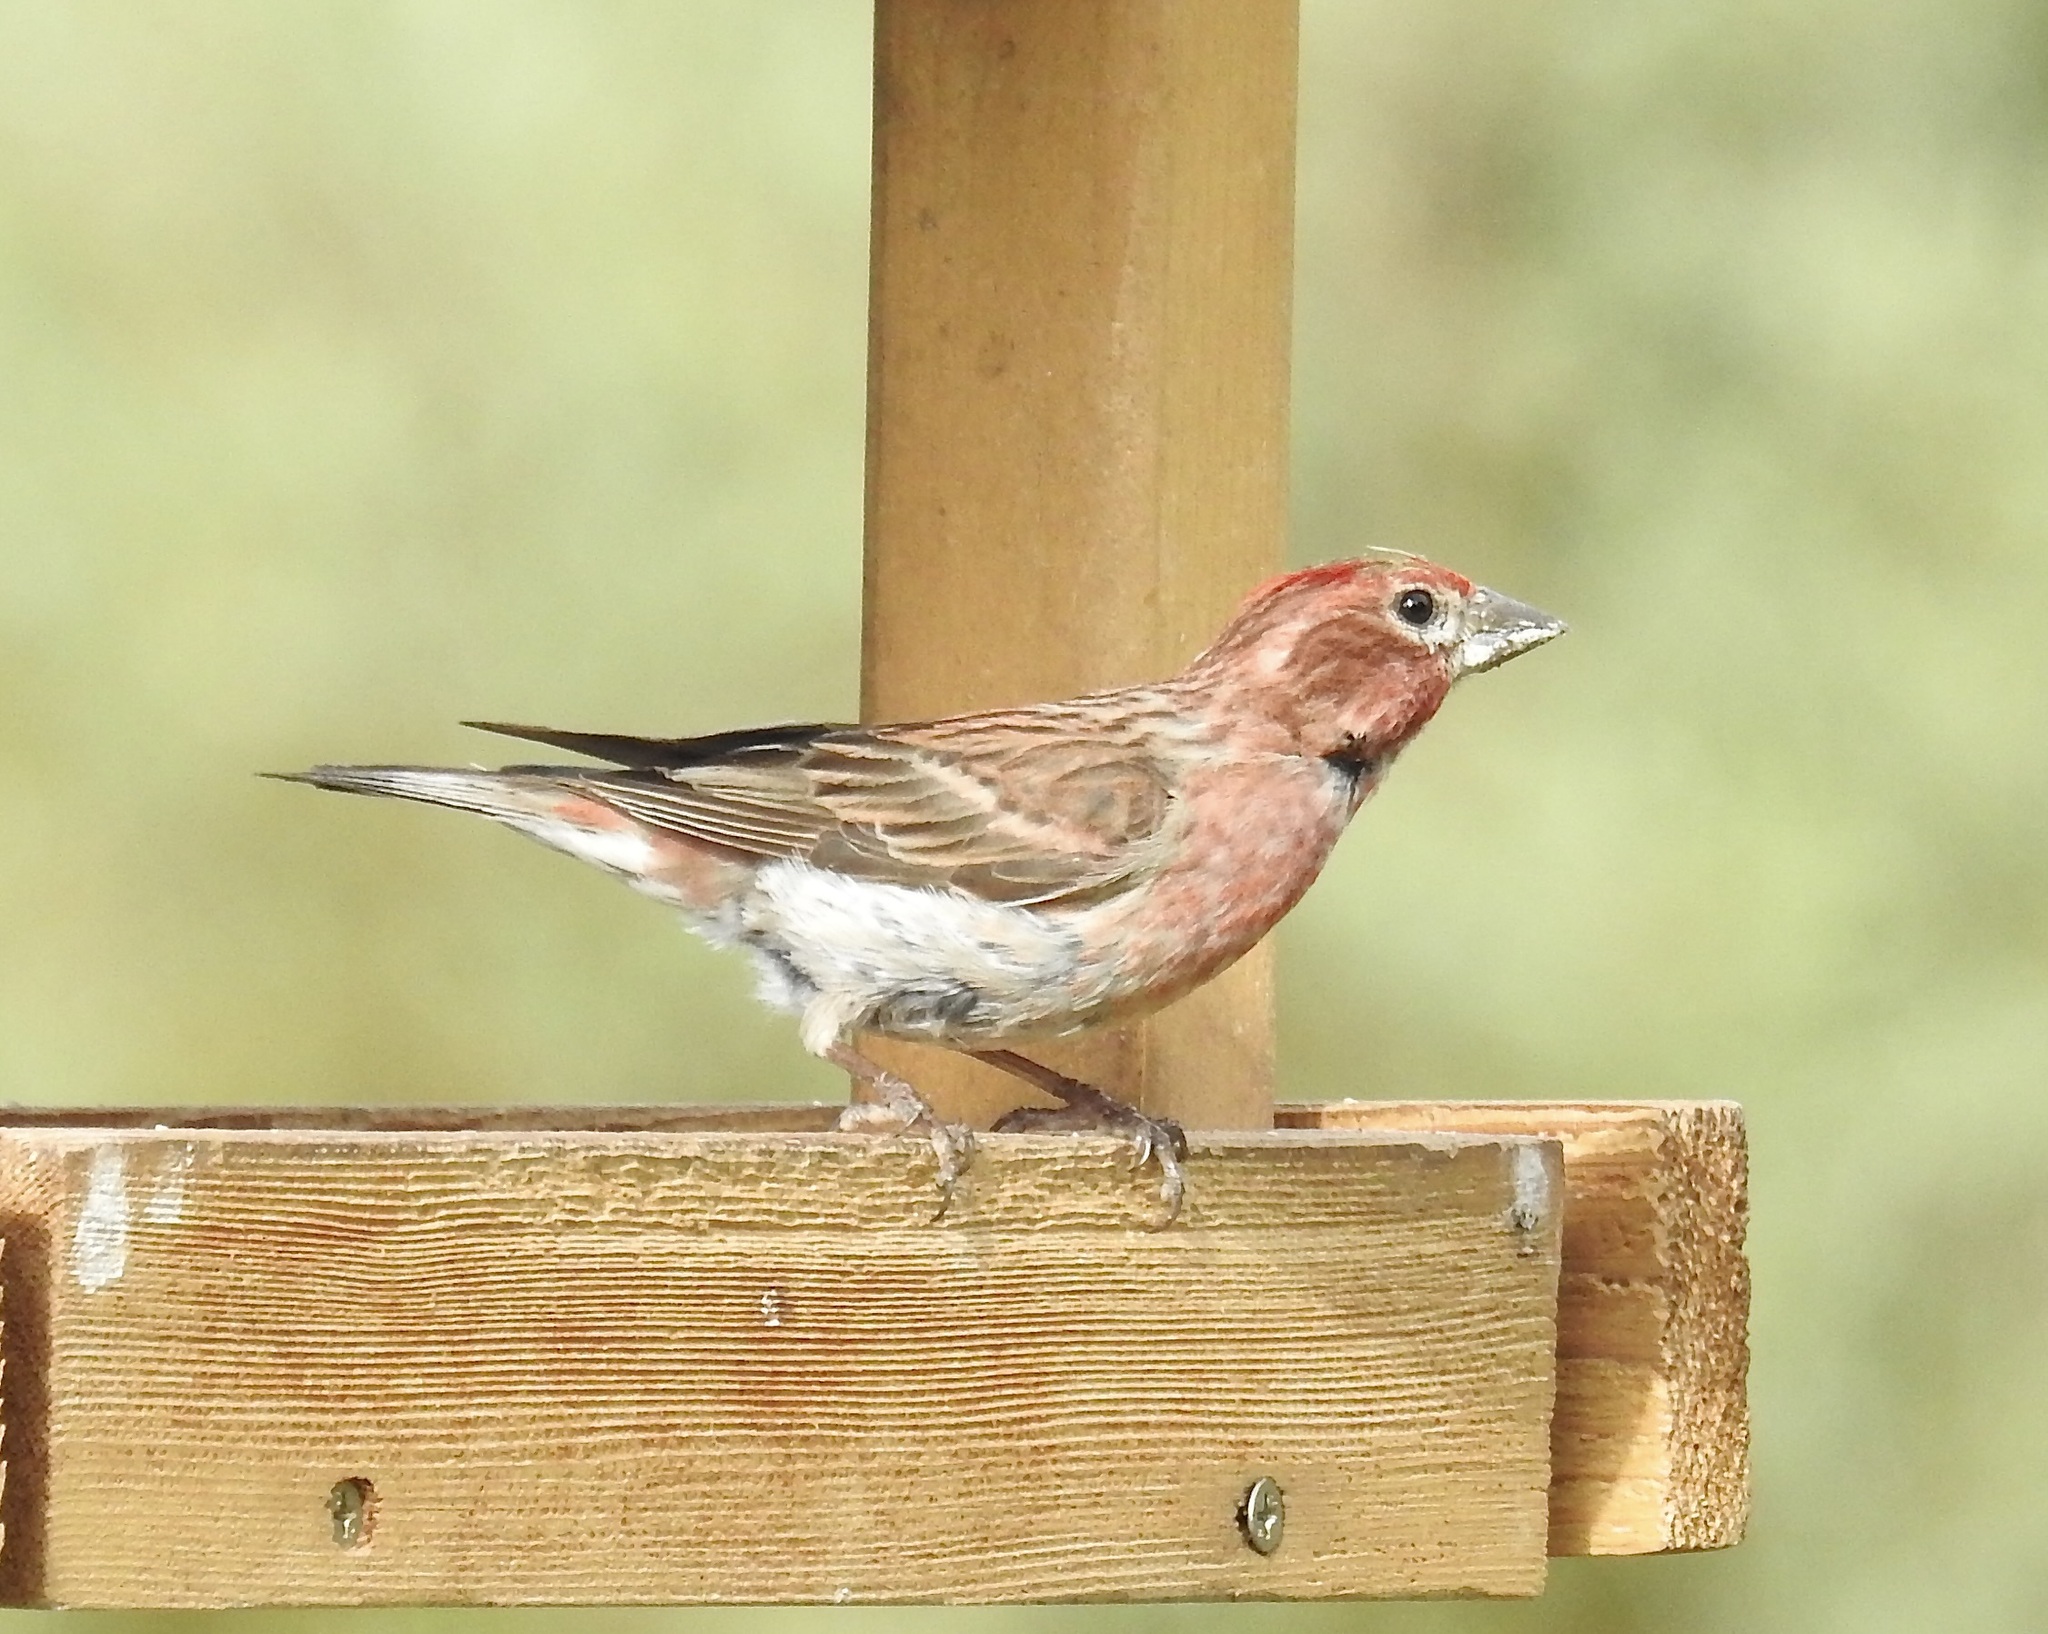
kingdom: Animalia
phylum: Chordata
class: Aves
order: Passeriformes
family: Fringillidae
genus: Haemorhous
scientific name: Haemorhous cassinii
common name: Cassin's finch
